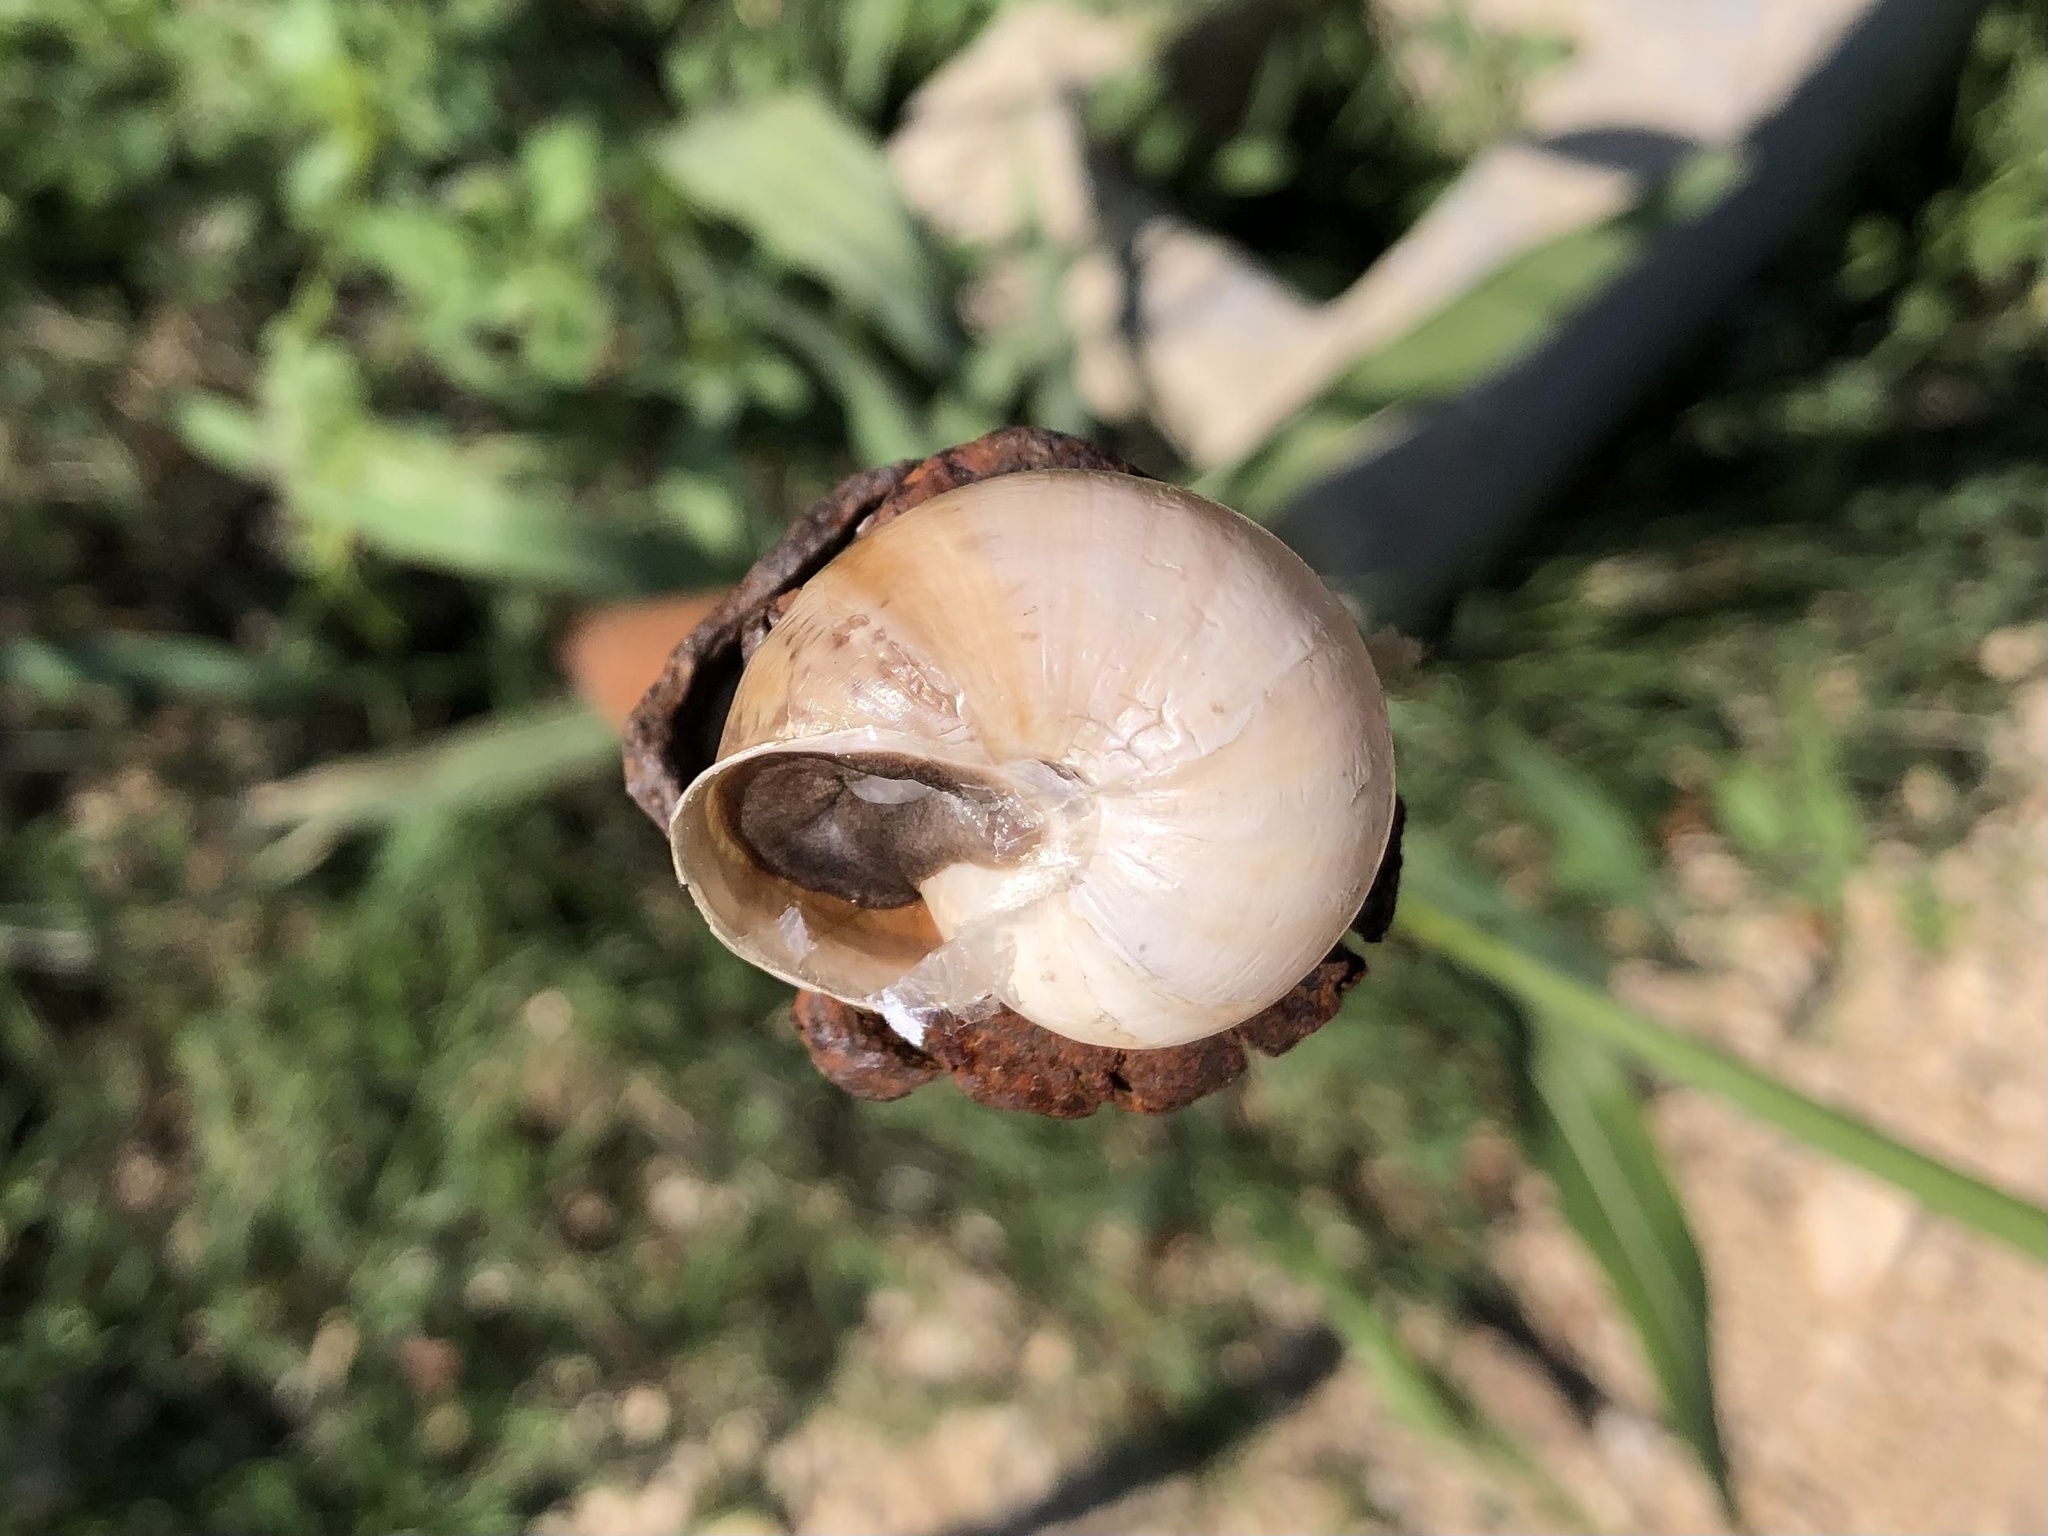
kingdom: Animalia
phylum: Mollusca
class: Gastropoda
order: Stylommatophora
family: Helicidae
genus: Theba
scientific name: Theba pisana
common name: White snail
